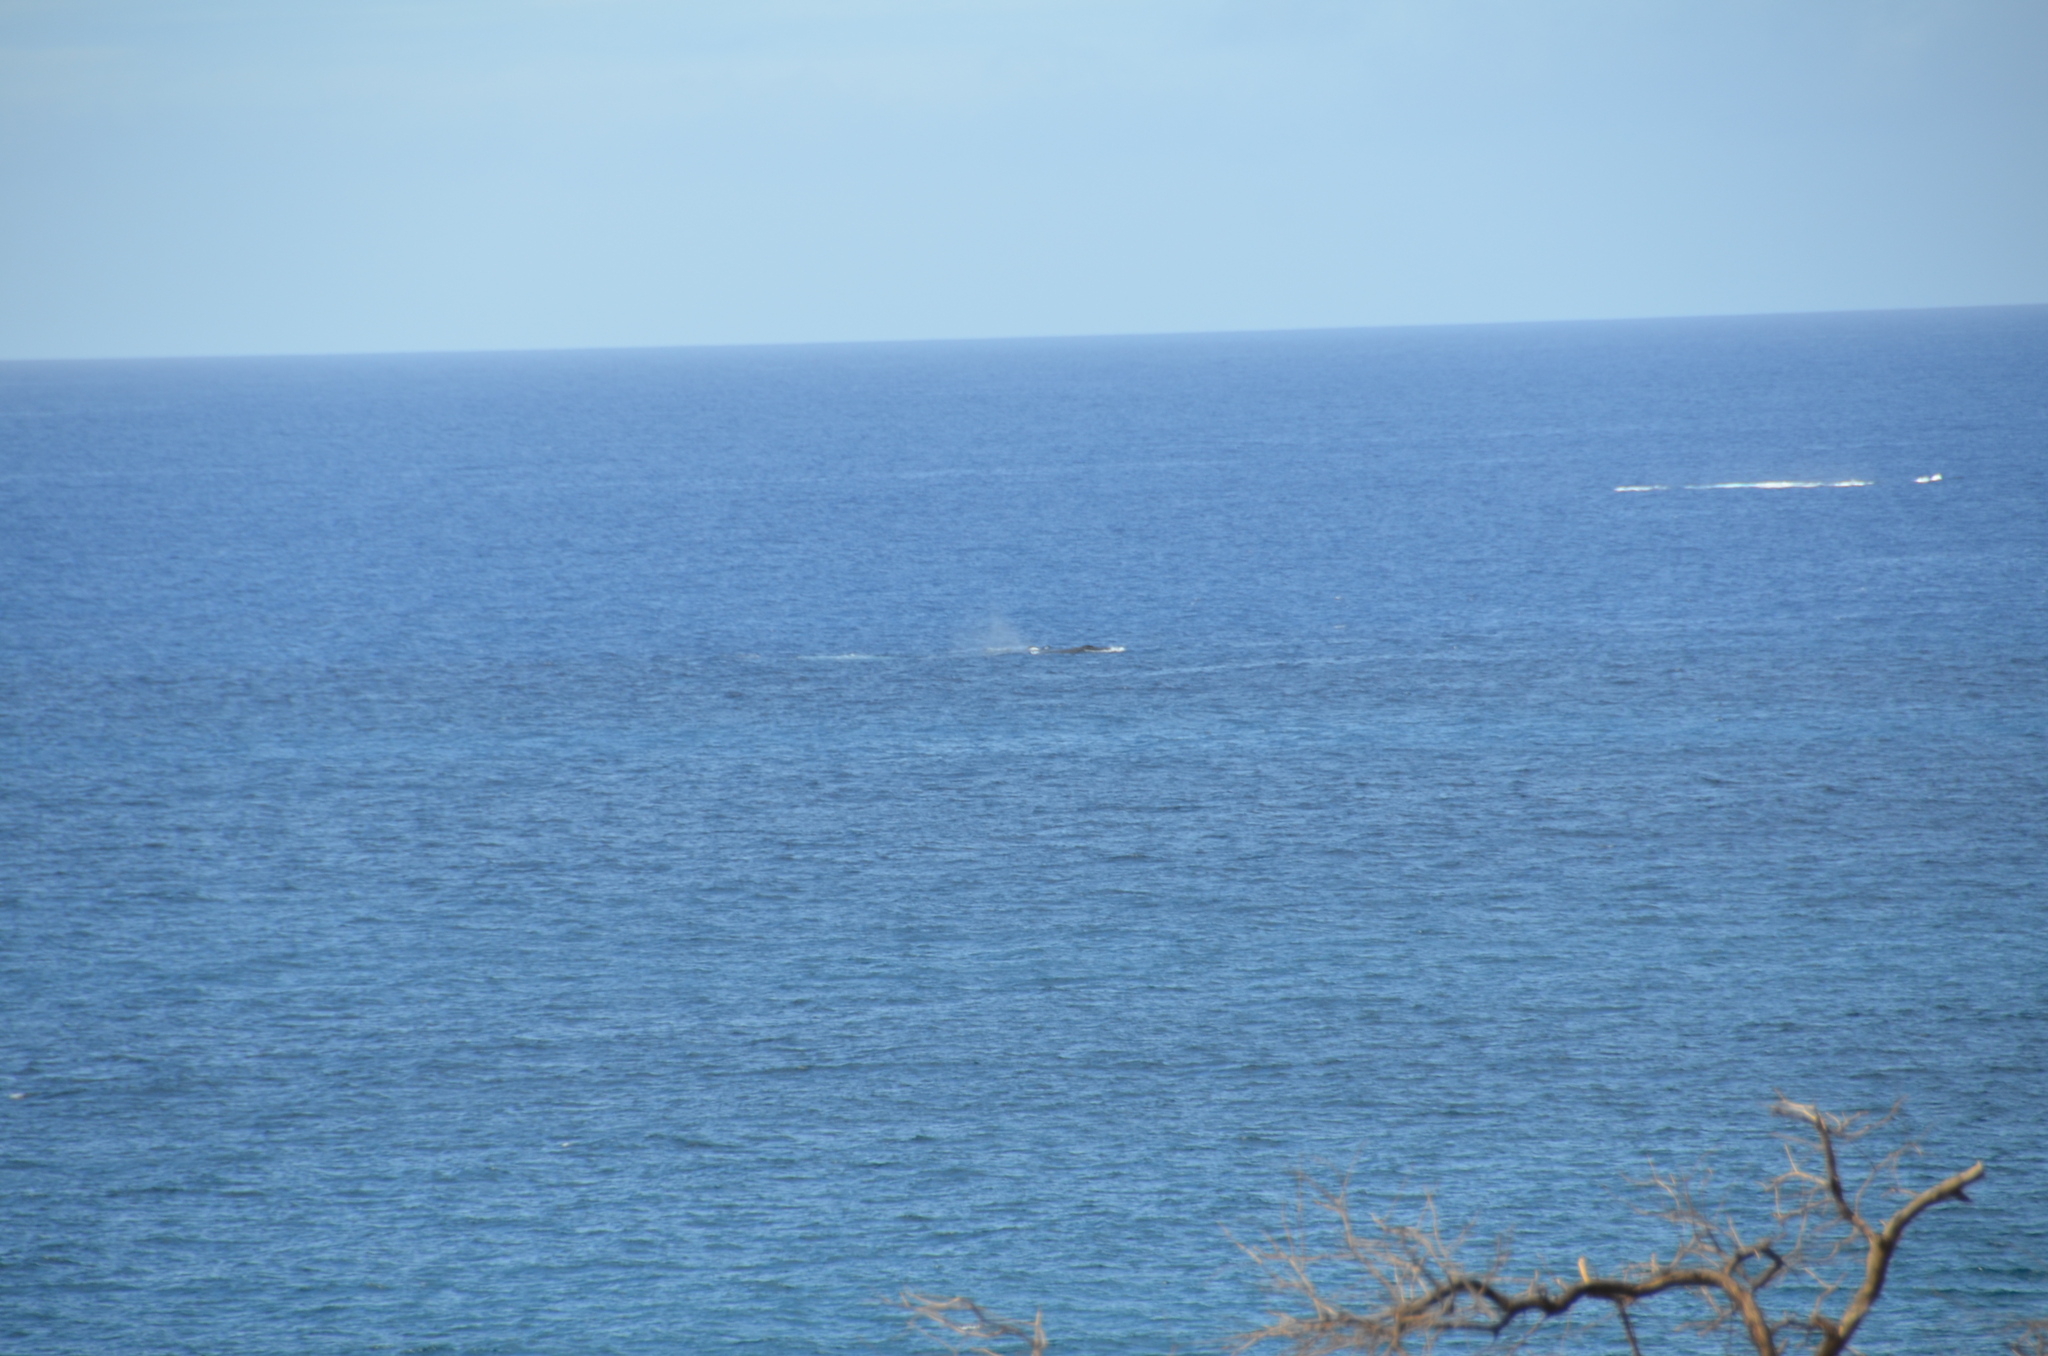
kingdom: Animalia
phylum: Chordata
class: Mammalia
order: Cetacea
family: Balaenopteridae
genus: Megaptera
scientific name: Megaptera novaeangliae
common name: Humpback whale
